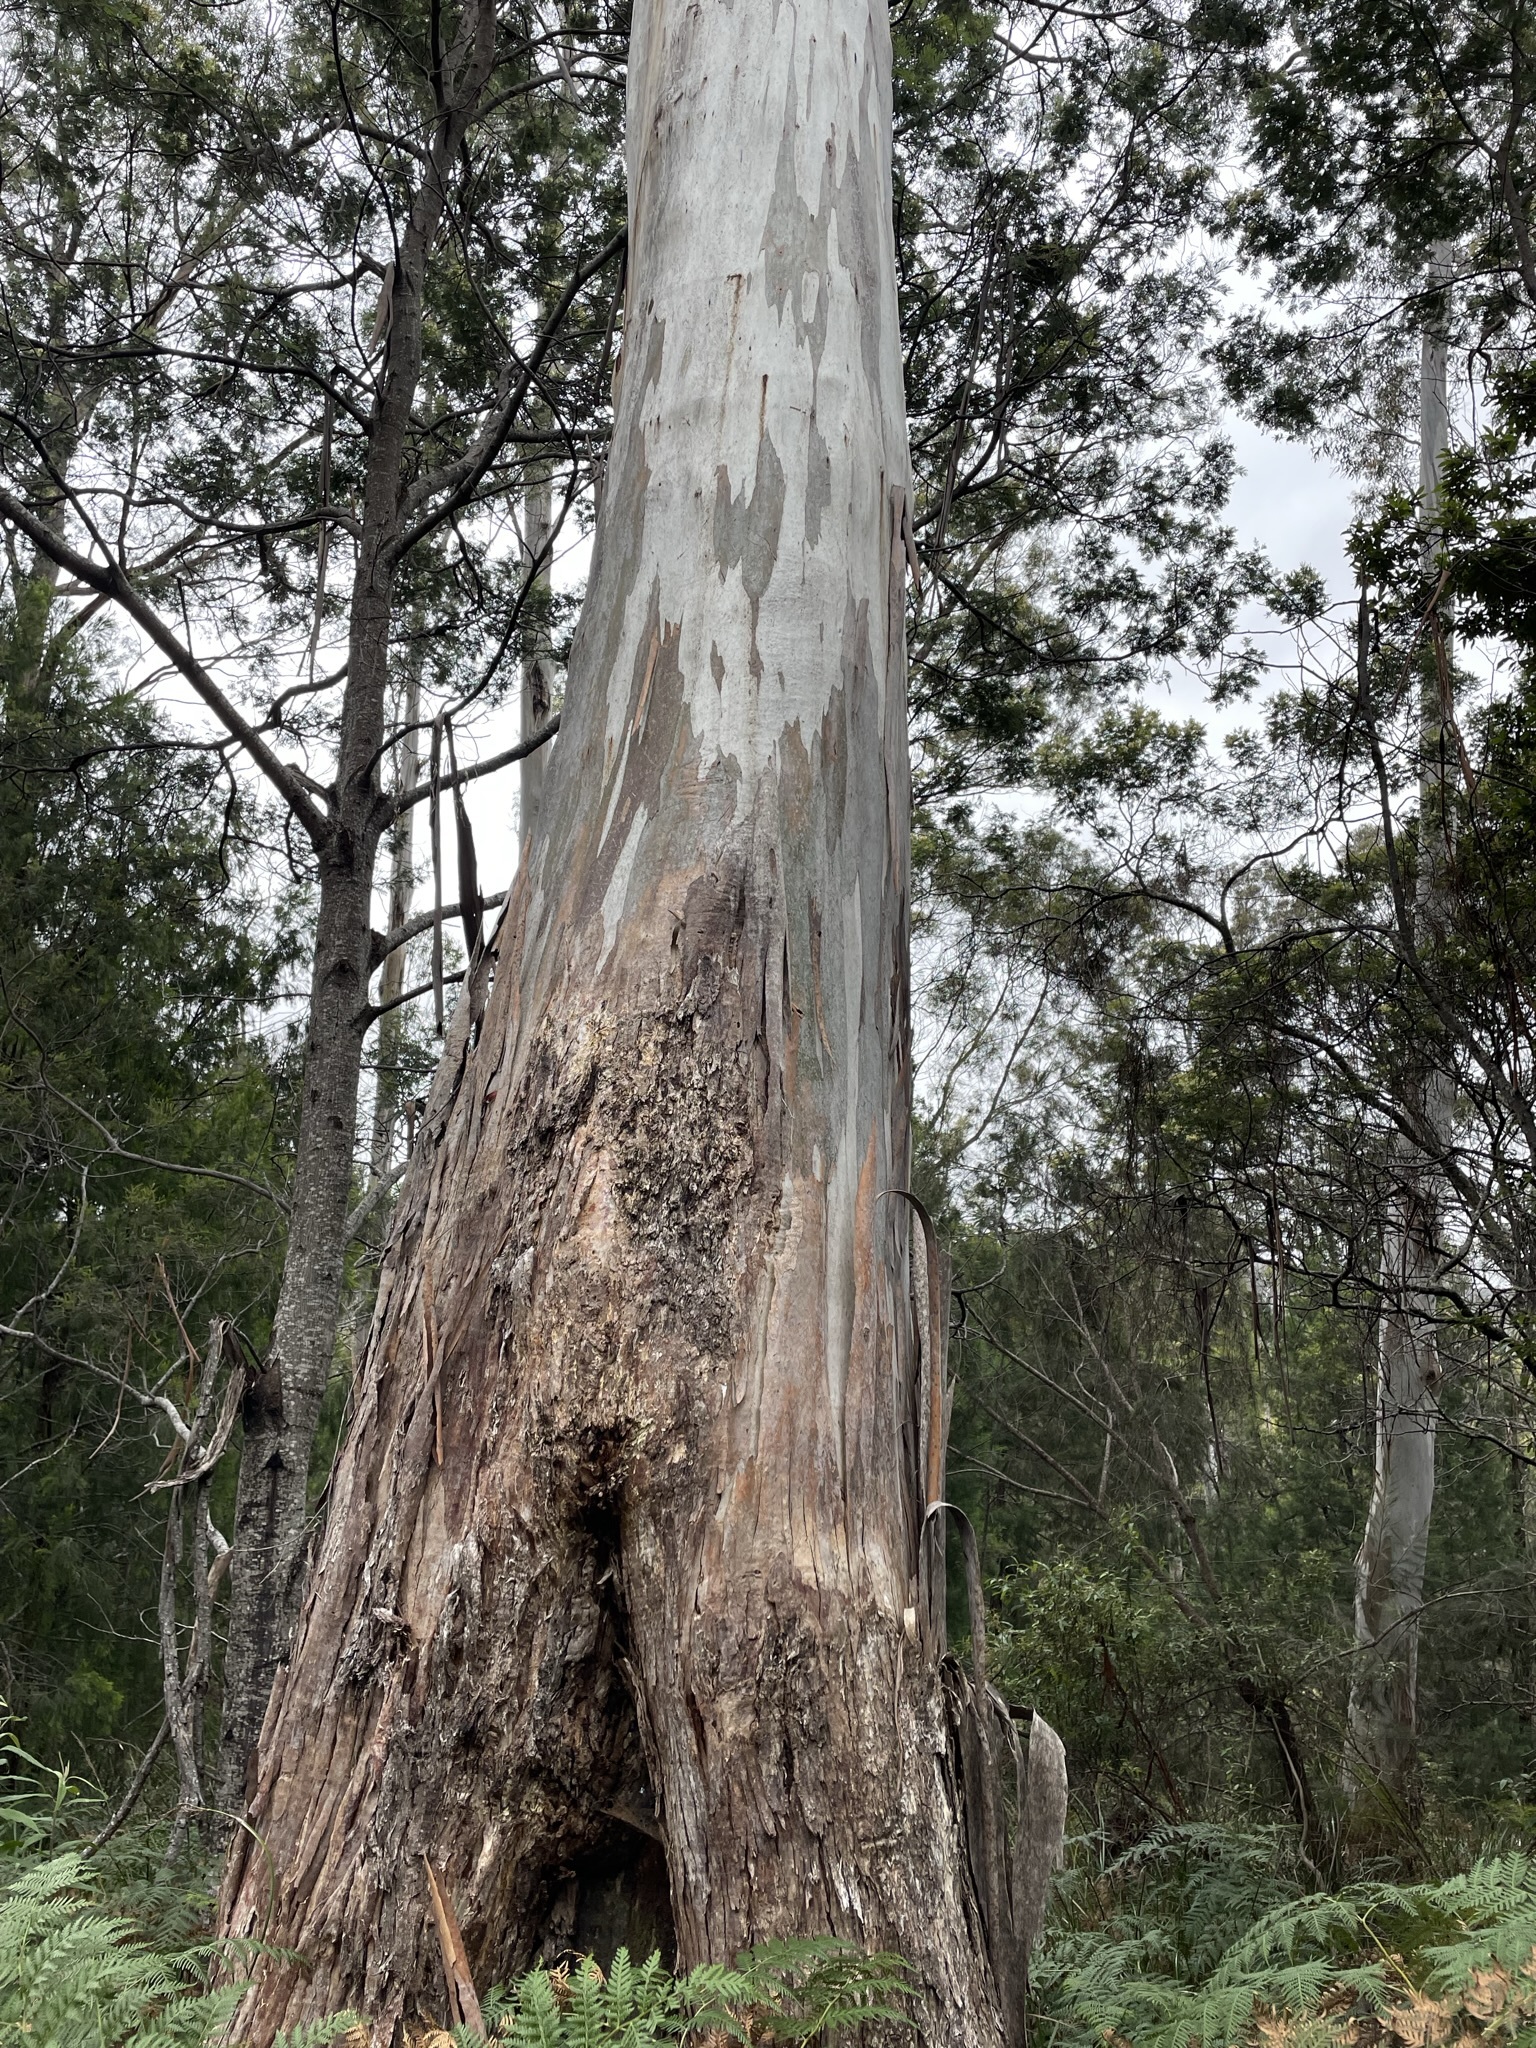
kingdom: Plantae
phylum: Tracheophyta
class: Magnoliopsida
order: Myrtales
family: Myrtaceae
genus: Eucalyptus
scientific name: Eucalyptus viminalis
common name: Manna gum
